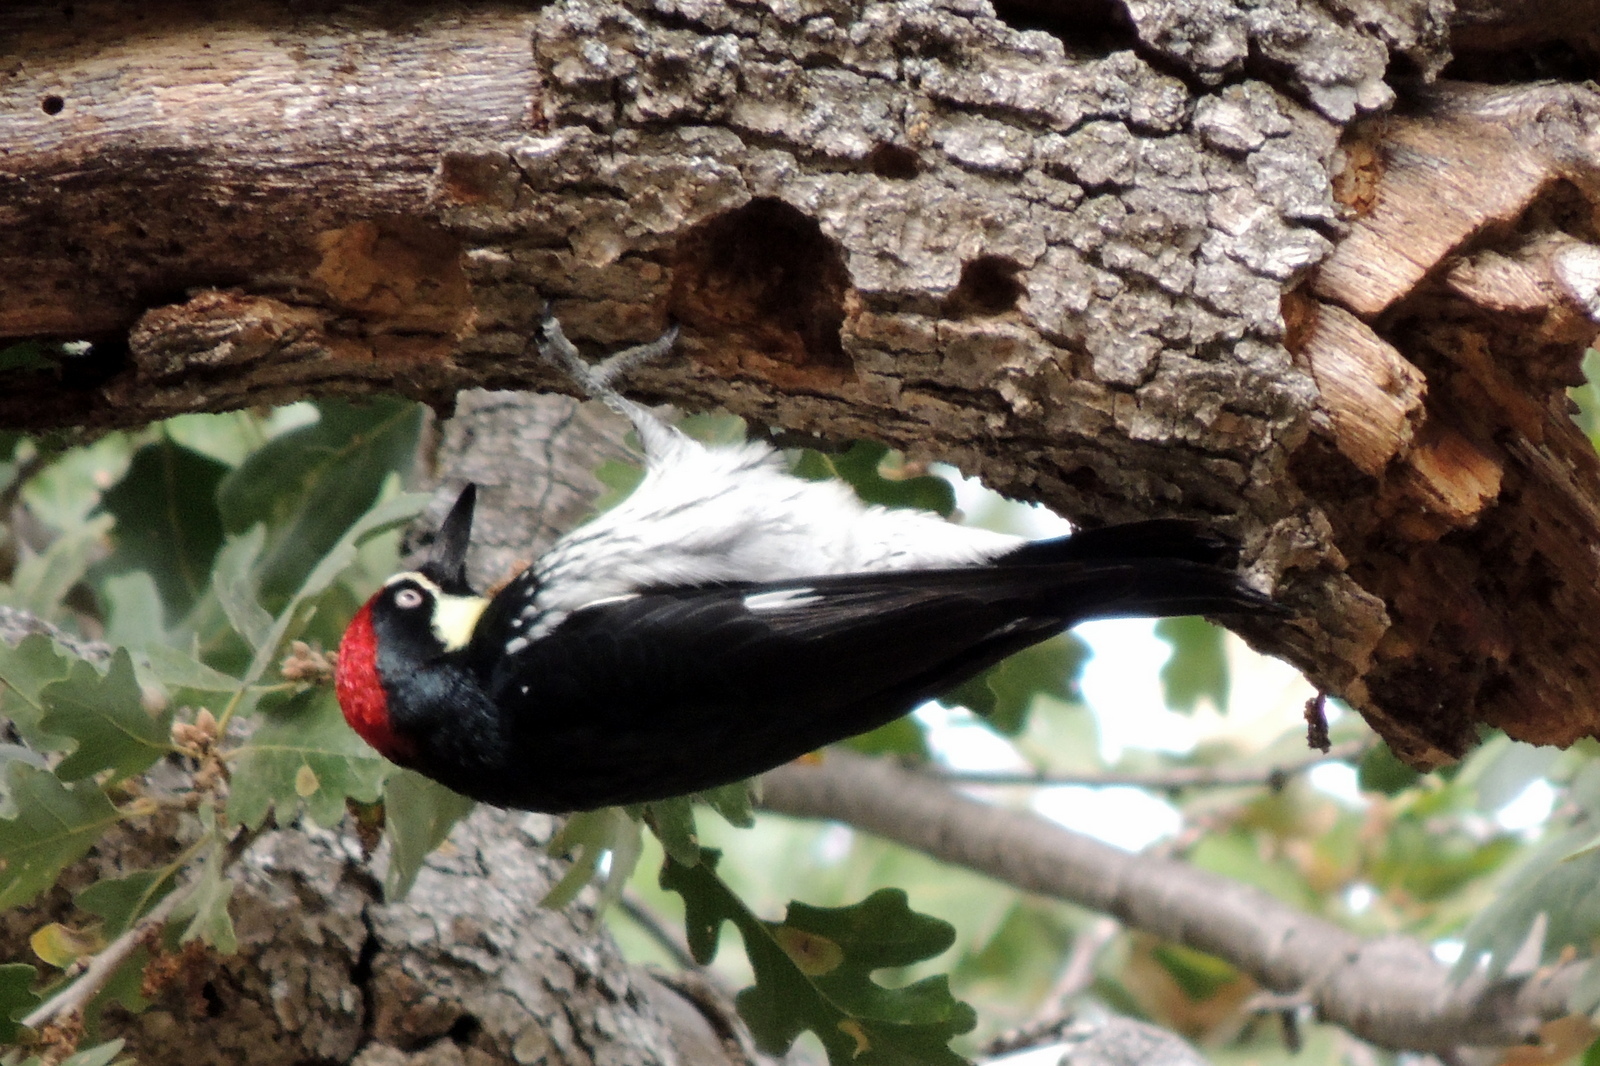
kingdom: Animalia
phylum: Chordata
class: Aves
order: Piciformes
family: Picidae
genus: Melanerpes
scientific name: Melanerpes formicivorus
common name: Acorn woodpecker
